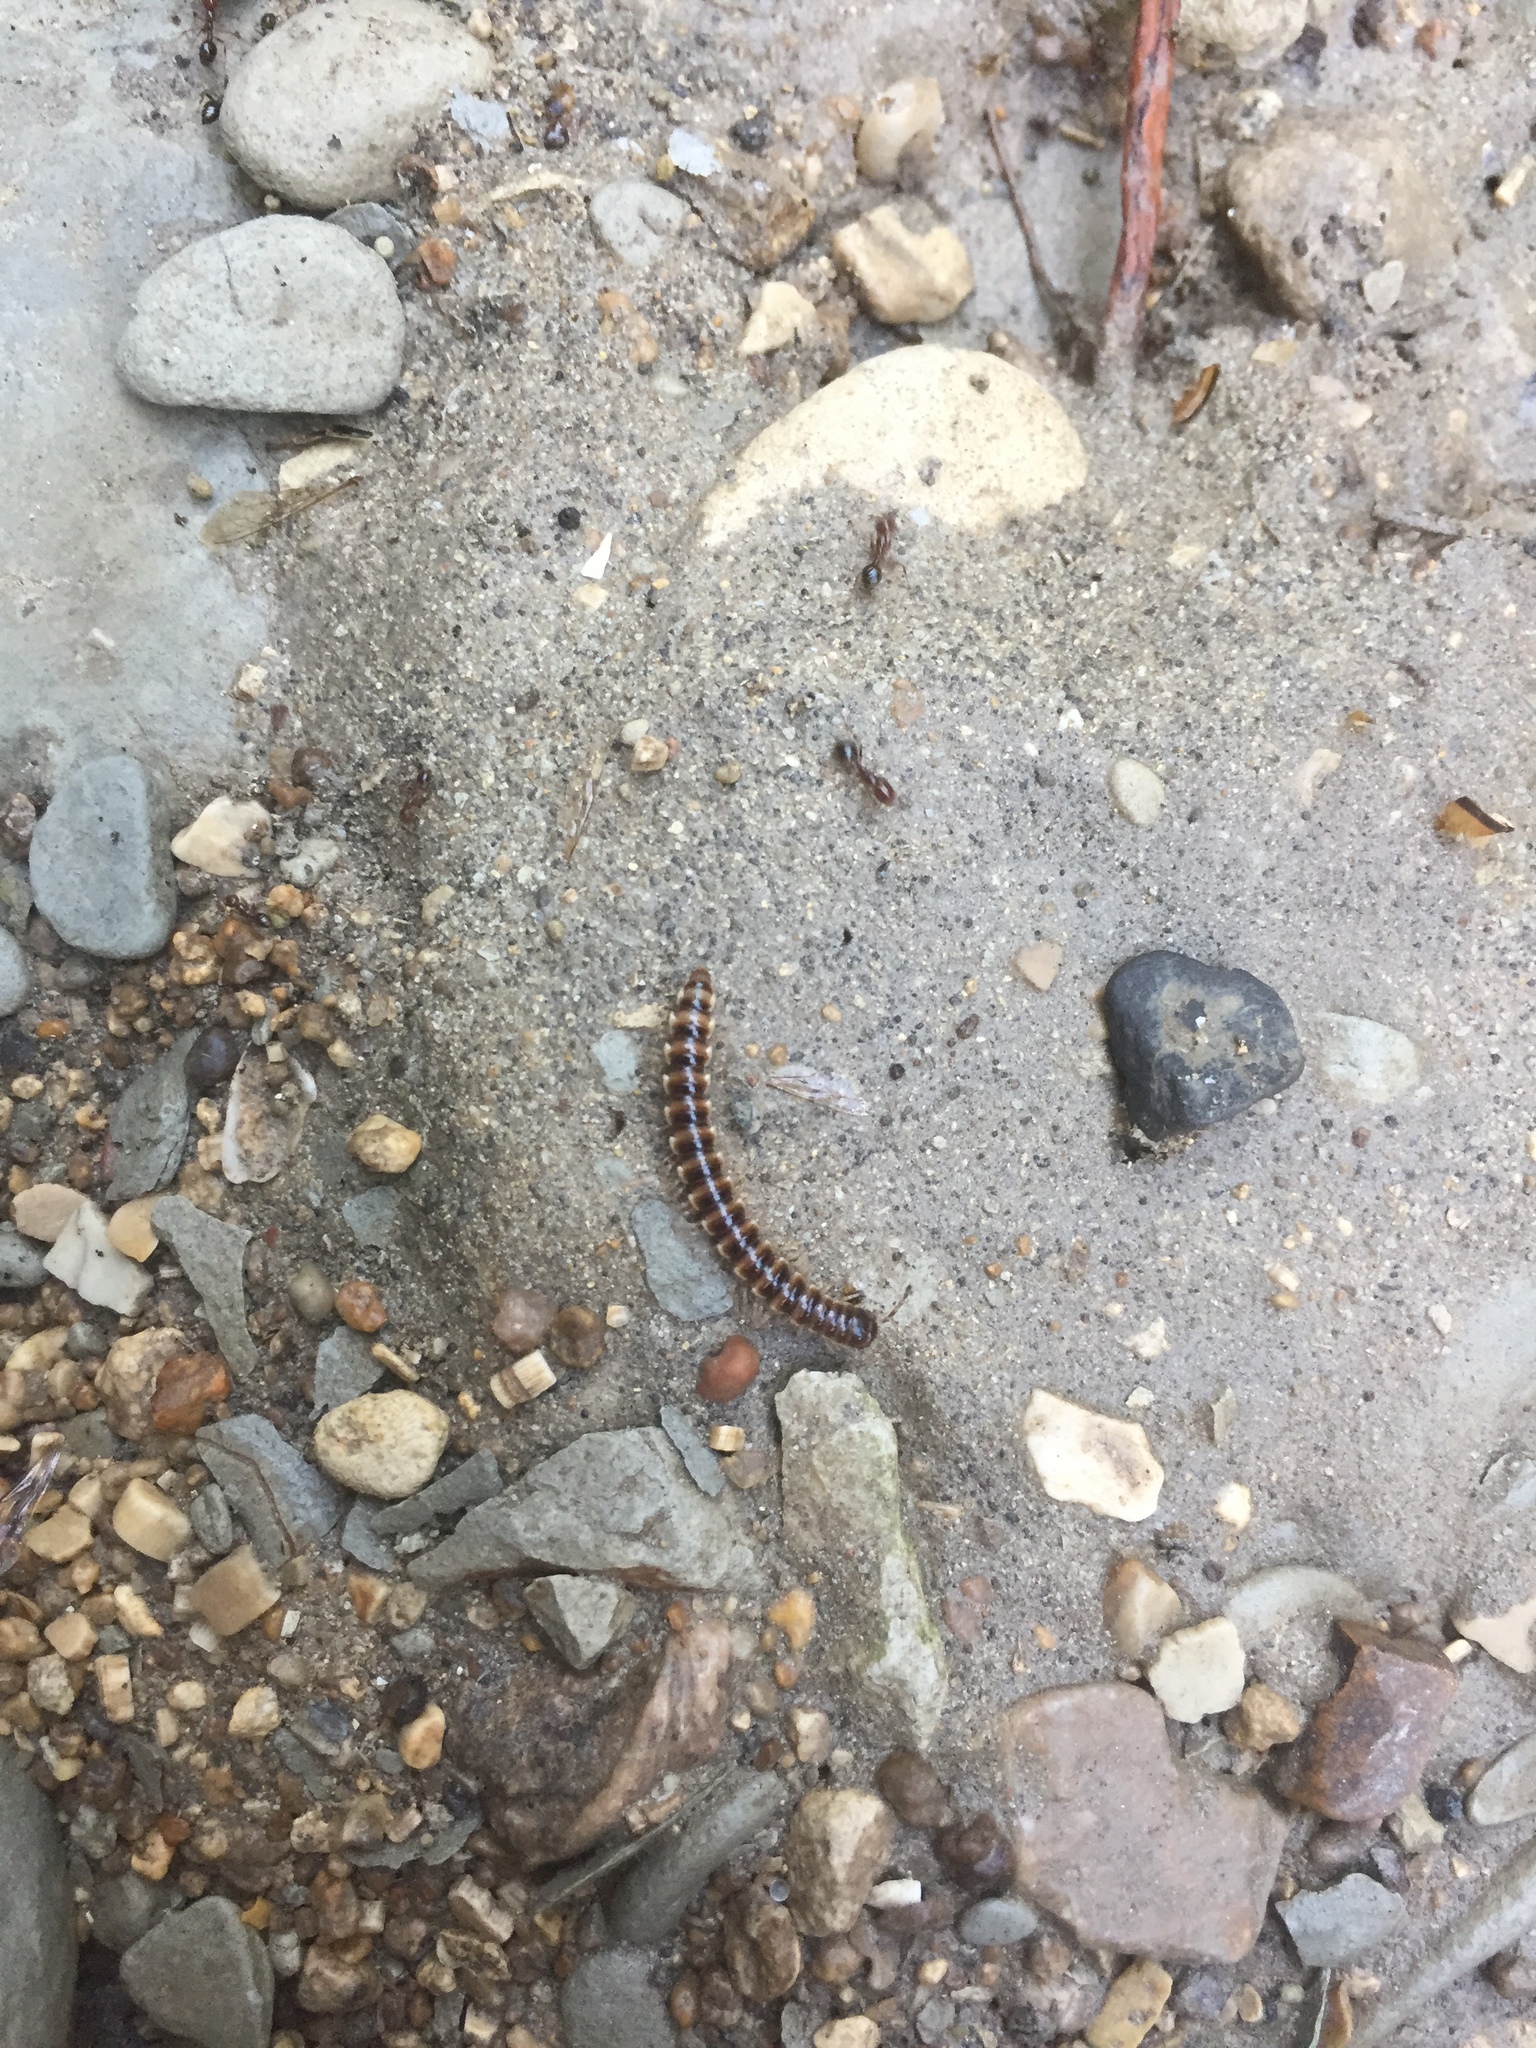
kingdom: Animalia
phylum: Arthropoda
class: Diplopoda
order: Polydesmida
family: Paradoxosomatidae
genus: Oxidus
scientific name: Oxidus gracilis
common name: Greenhouse millipede
